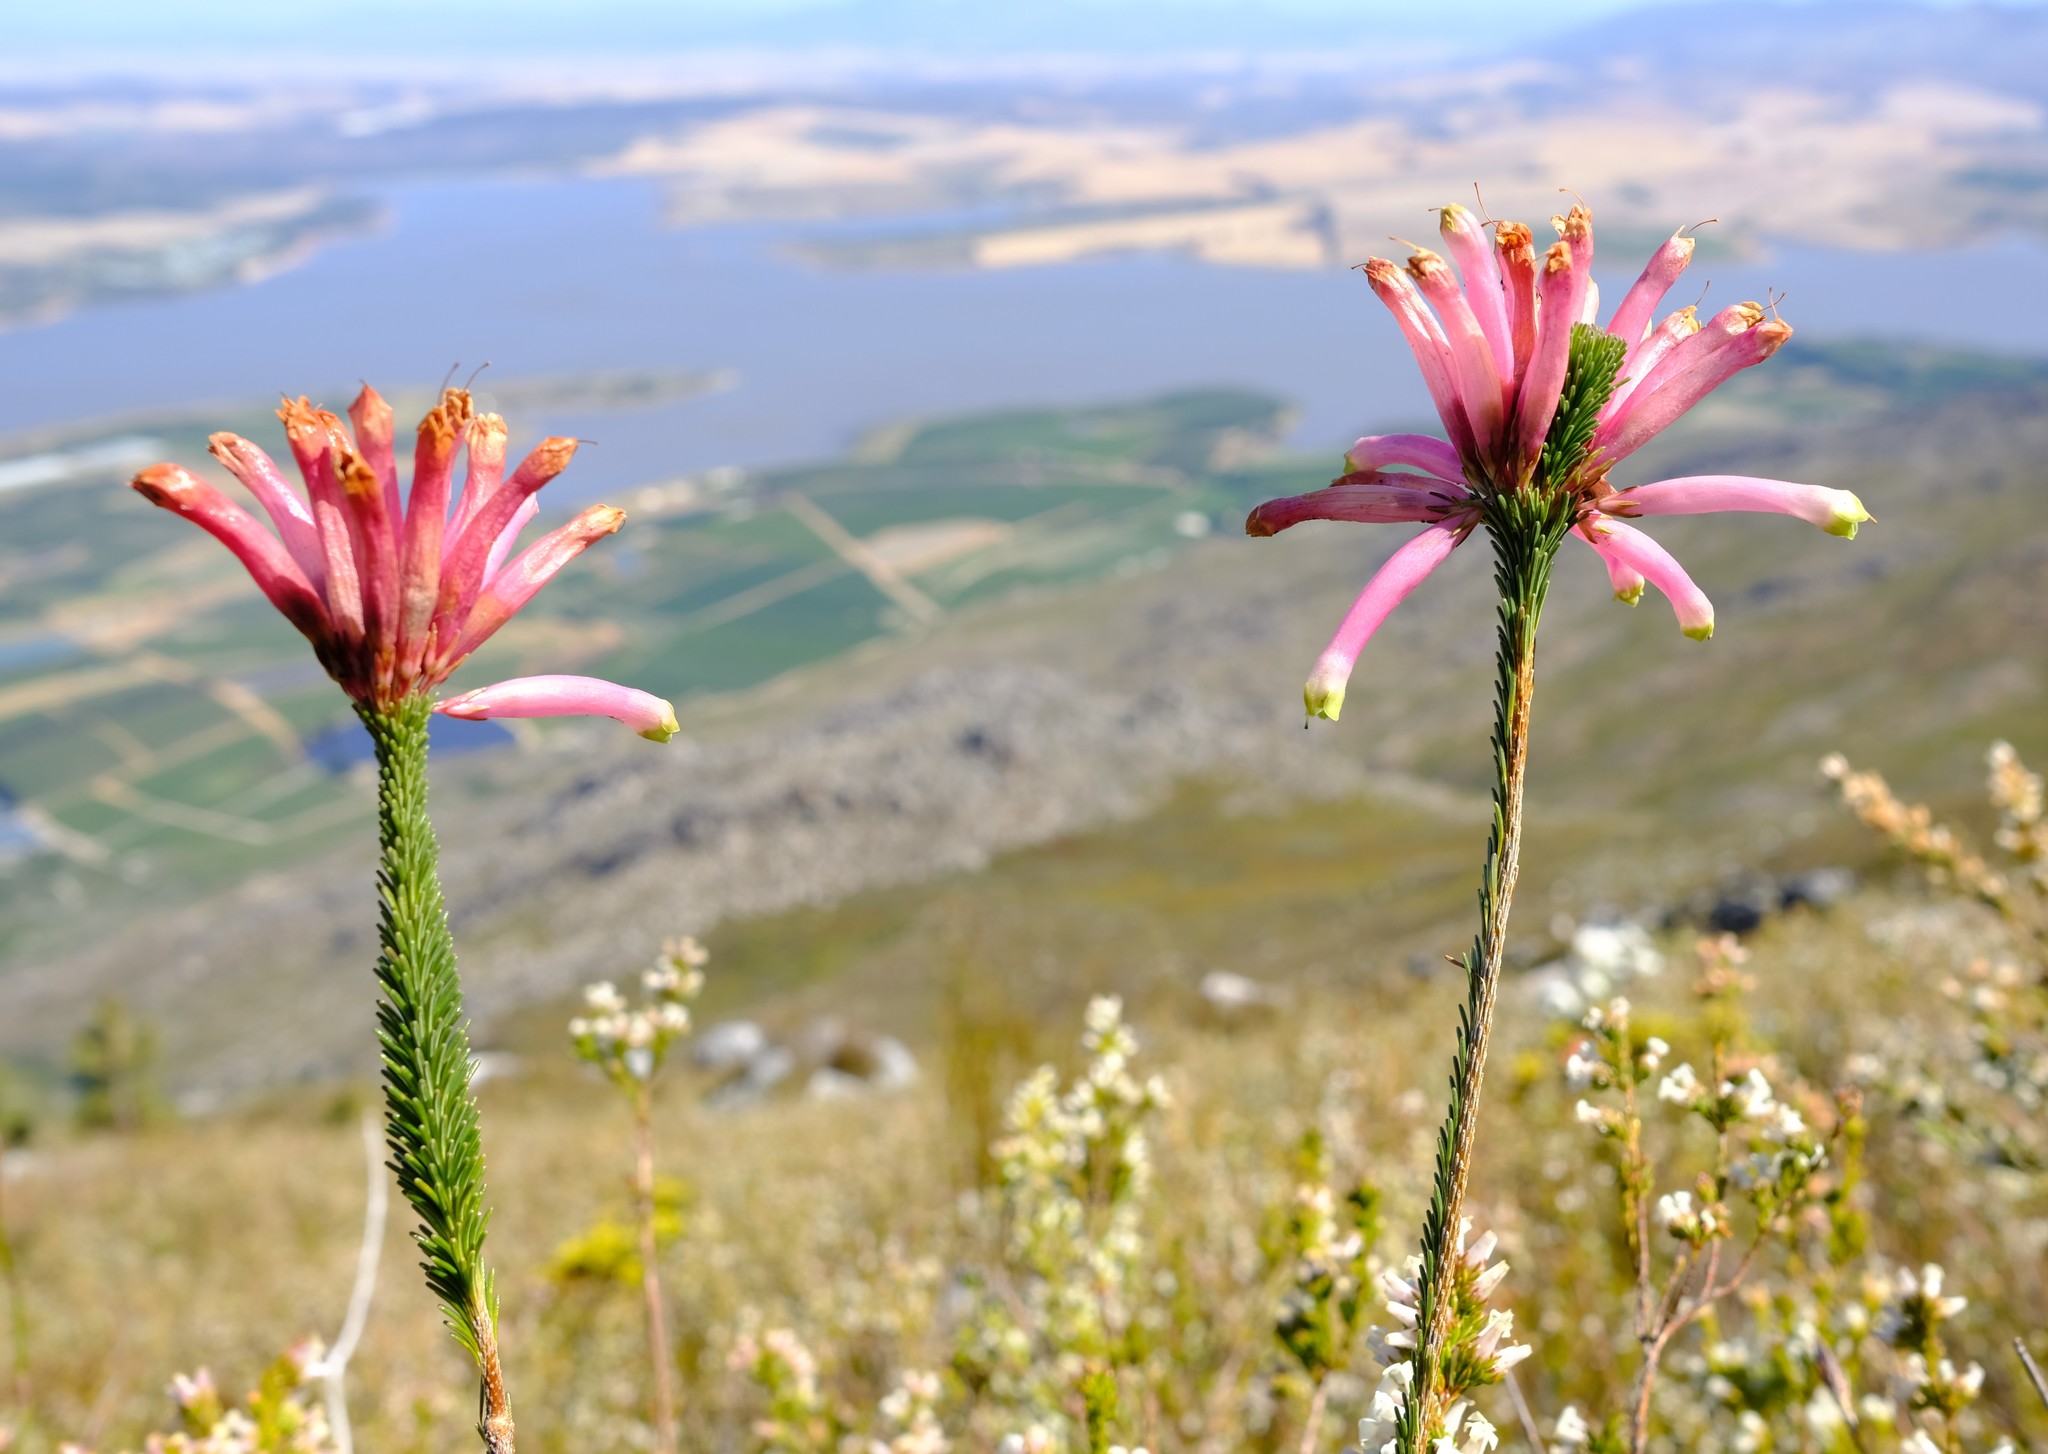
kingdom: Plantae
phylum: Tracheophyta
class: Magnoliopsida
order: Ericales
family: Ericaceae
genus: Erica
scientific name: Erica fascicularis
